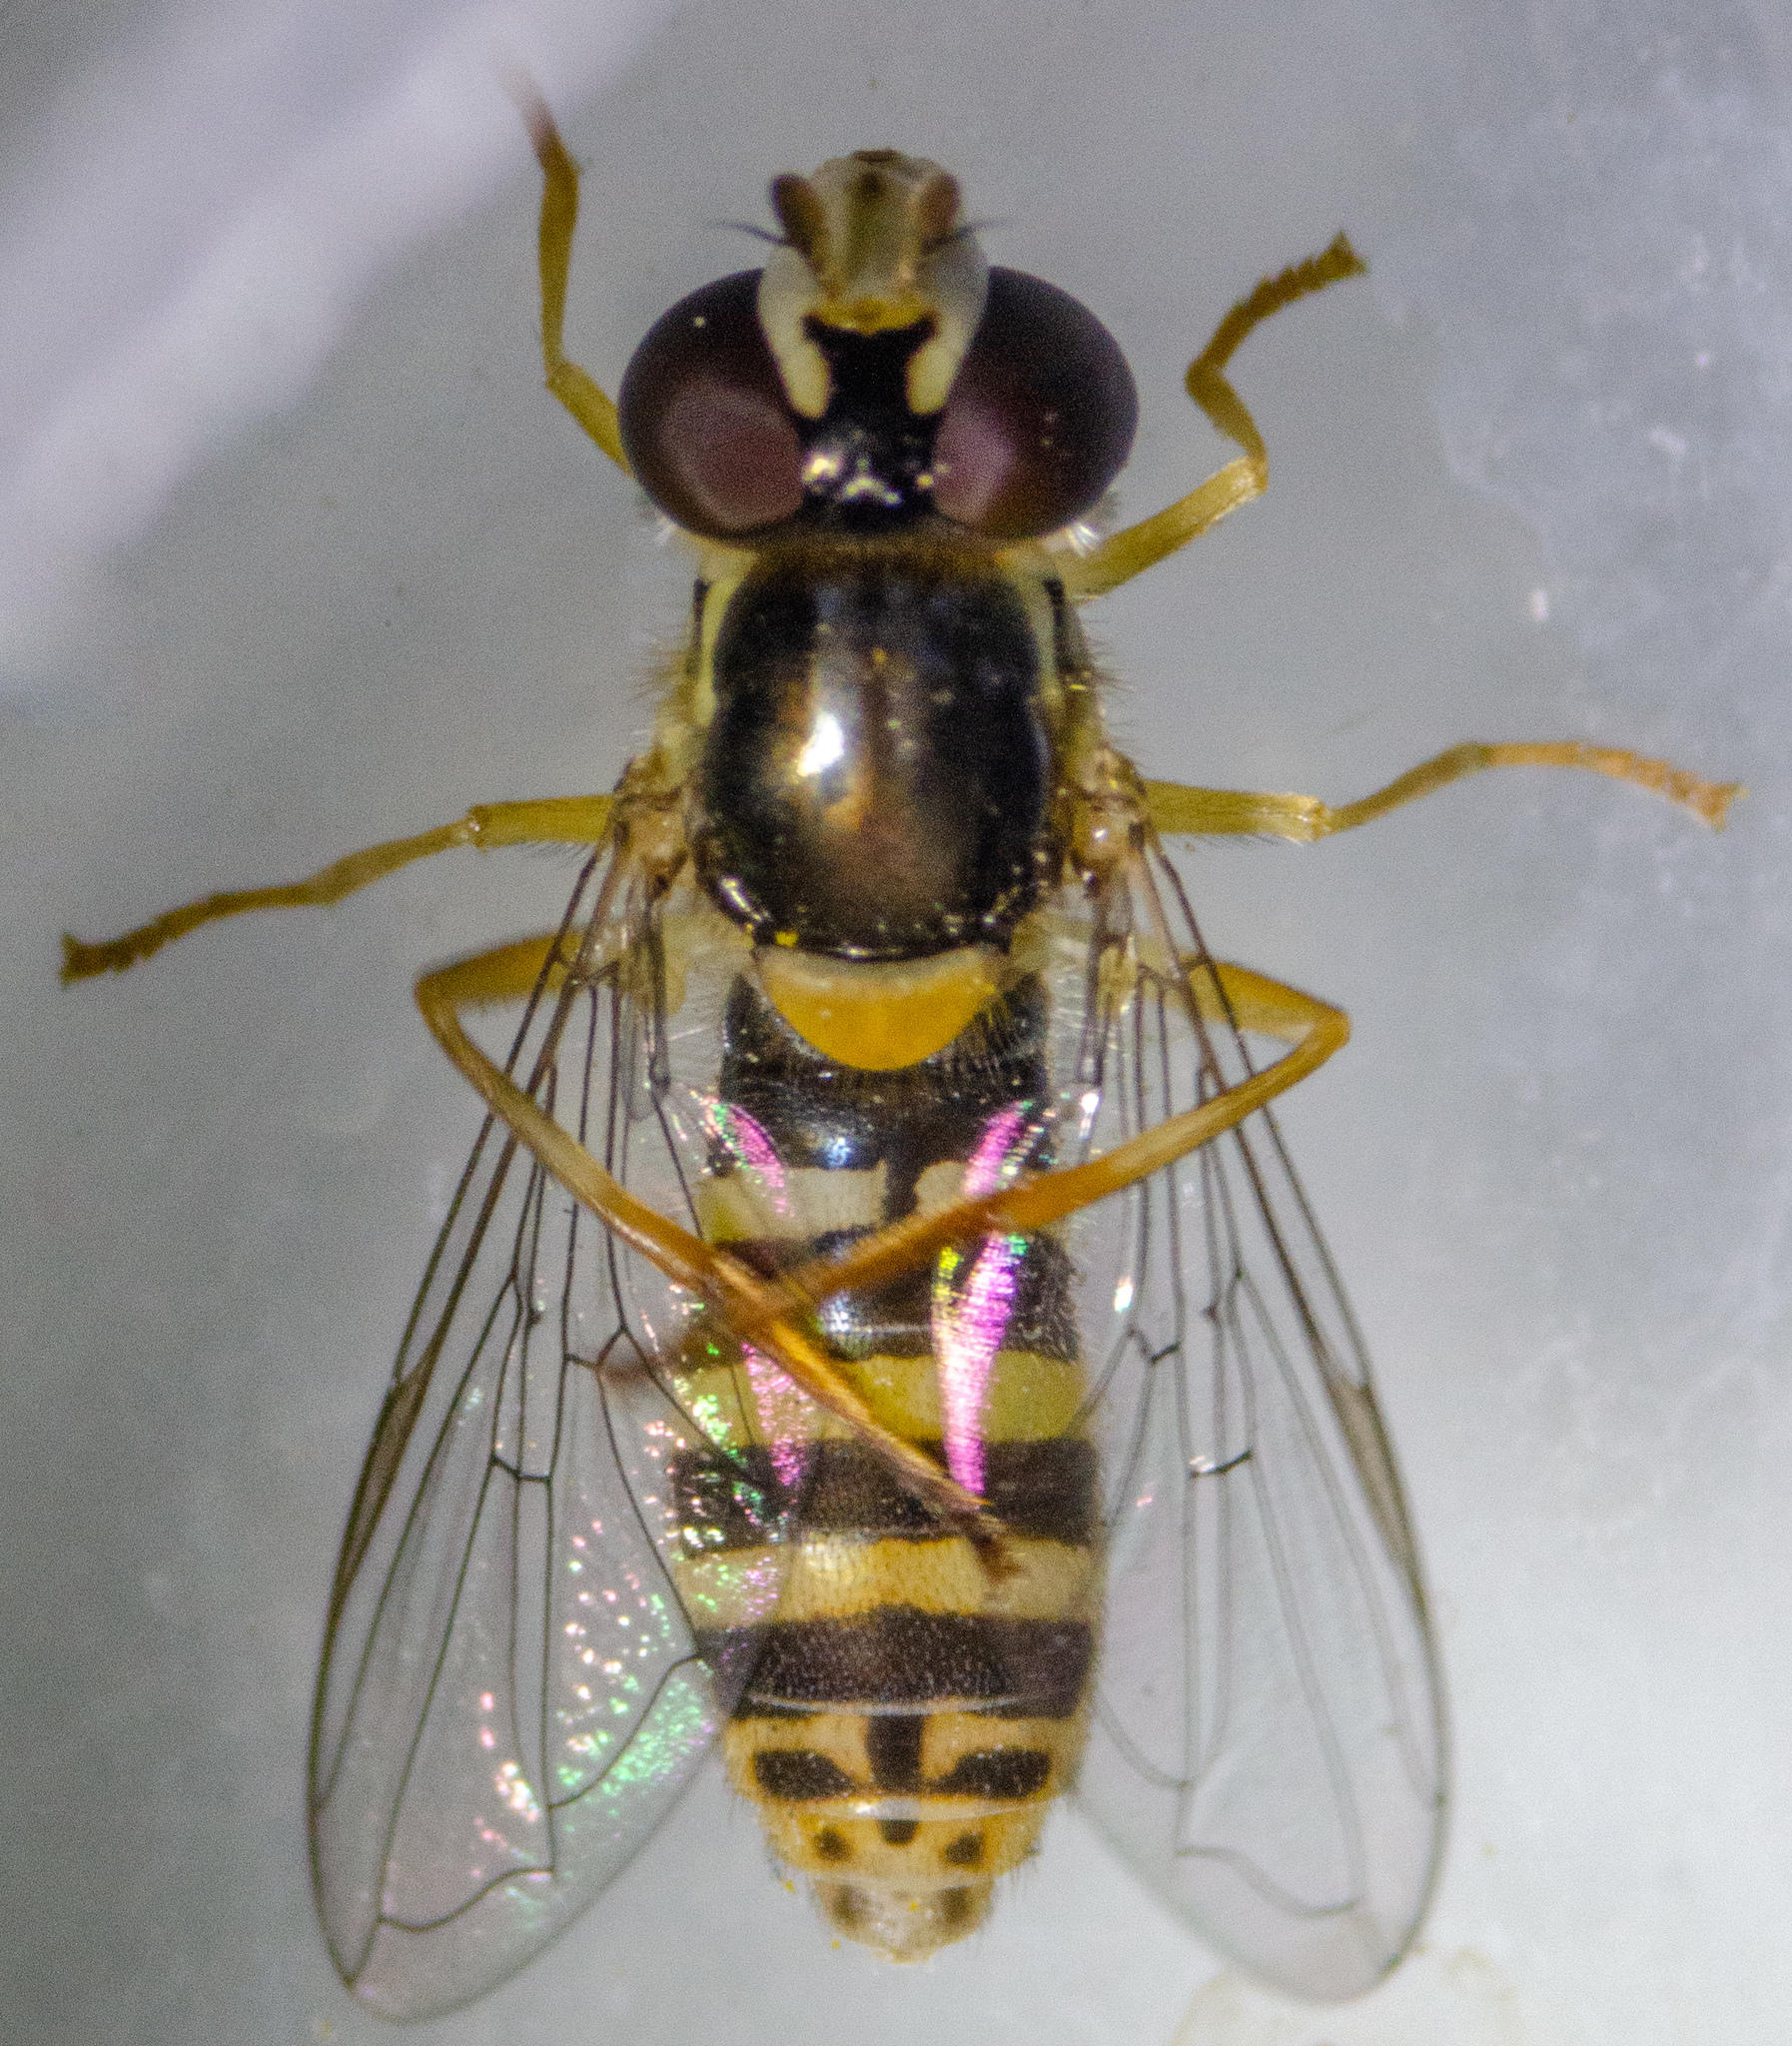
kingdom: Animalia
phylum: Arthropoda
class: Insecta
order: Diptera
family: Syrphidae
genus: Sphaerophoria
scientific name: Sphaerophoria sulphuripes
